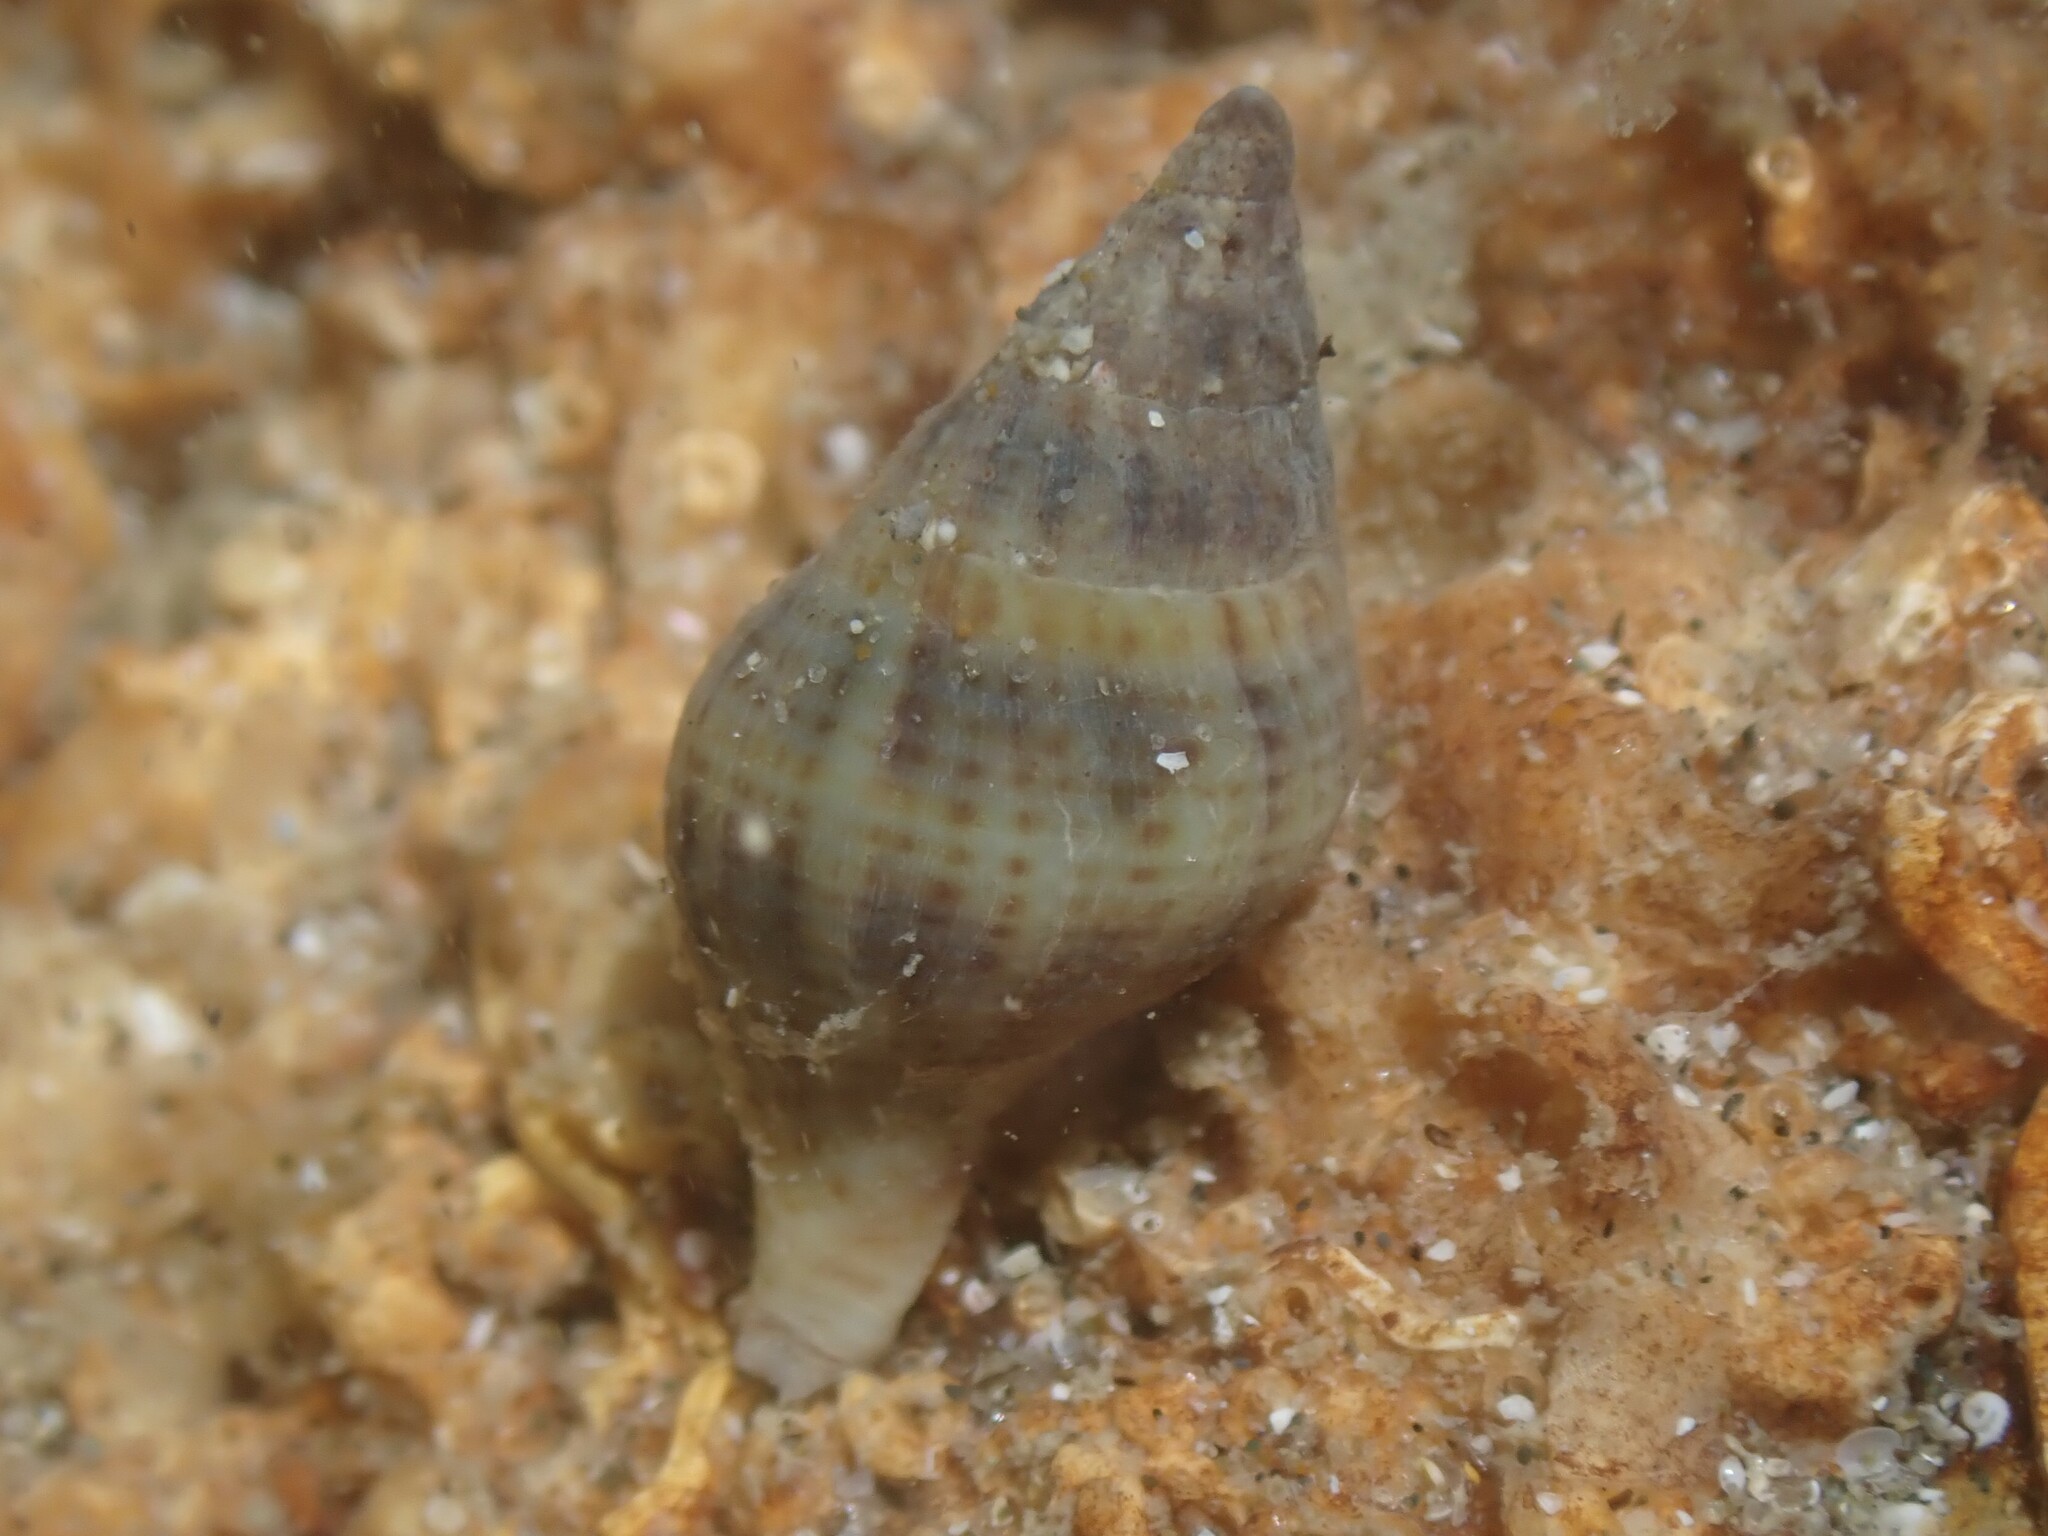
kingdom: Animalia
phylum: Mollusca
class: Gastropoda
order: Neogastropoda
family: Tudiclidae
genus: Buccinulum
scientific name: Buccinulum vittatum
